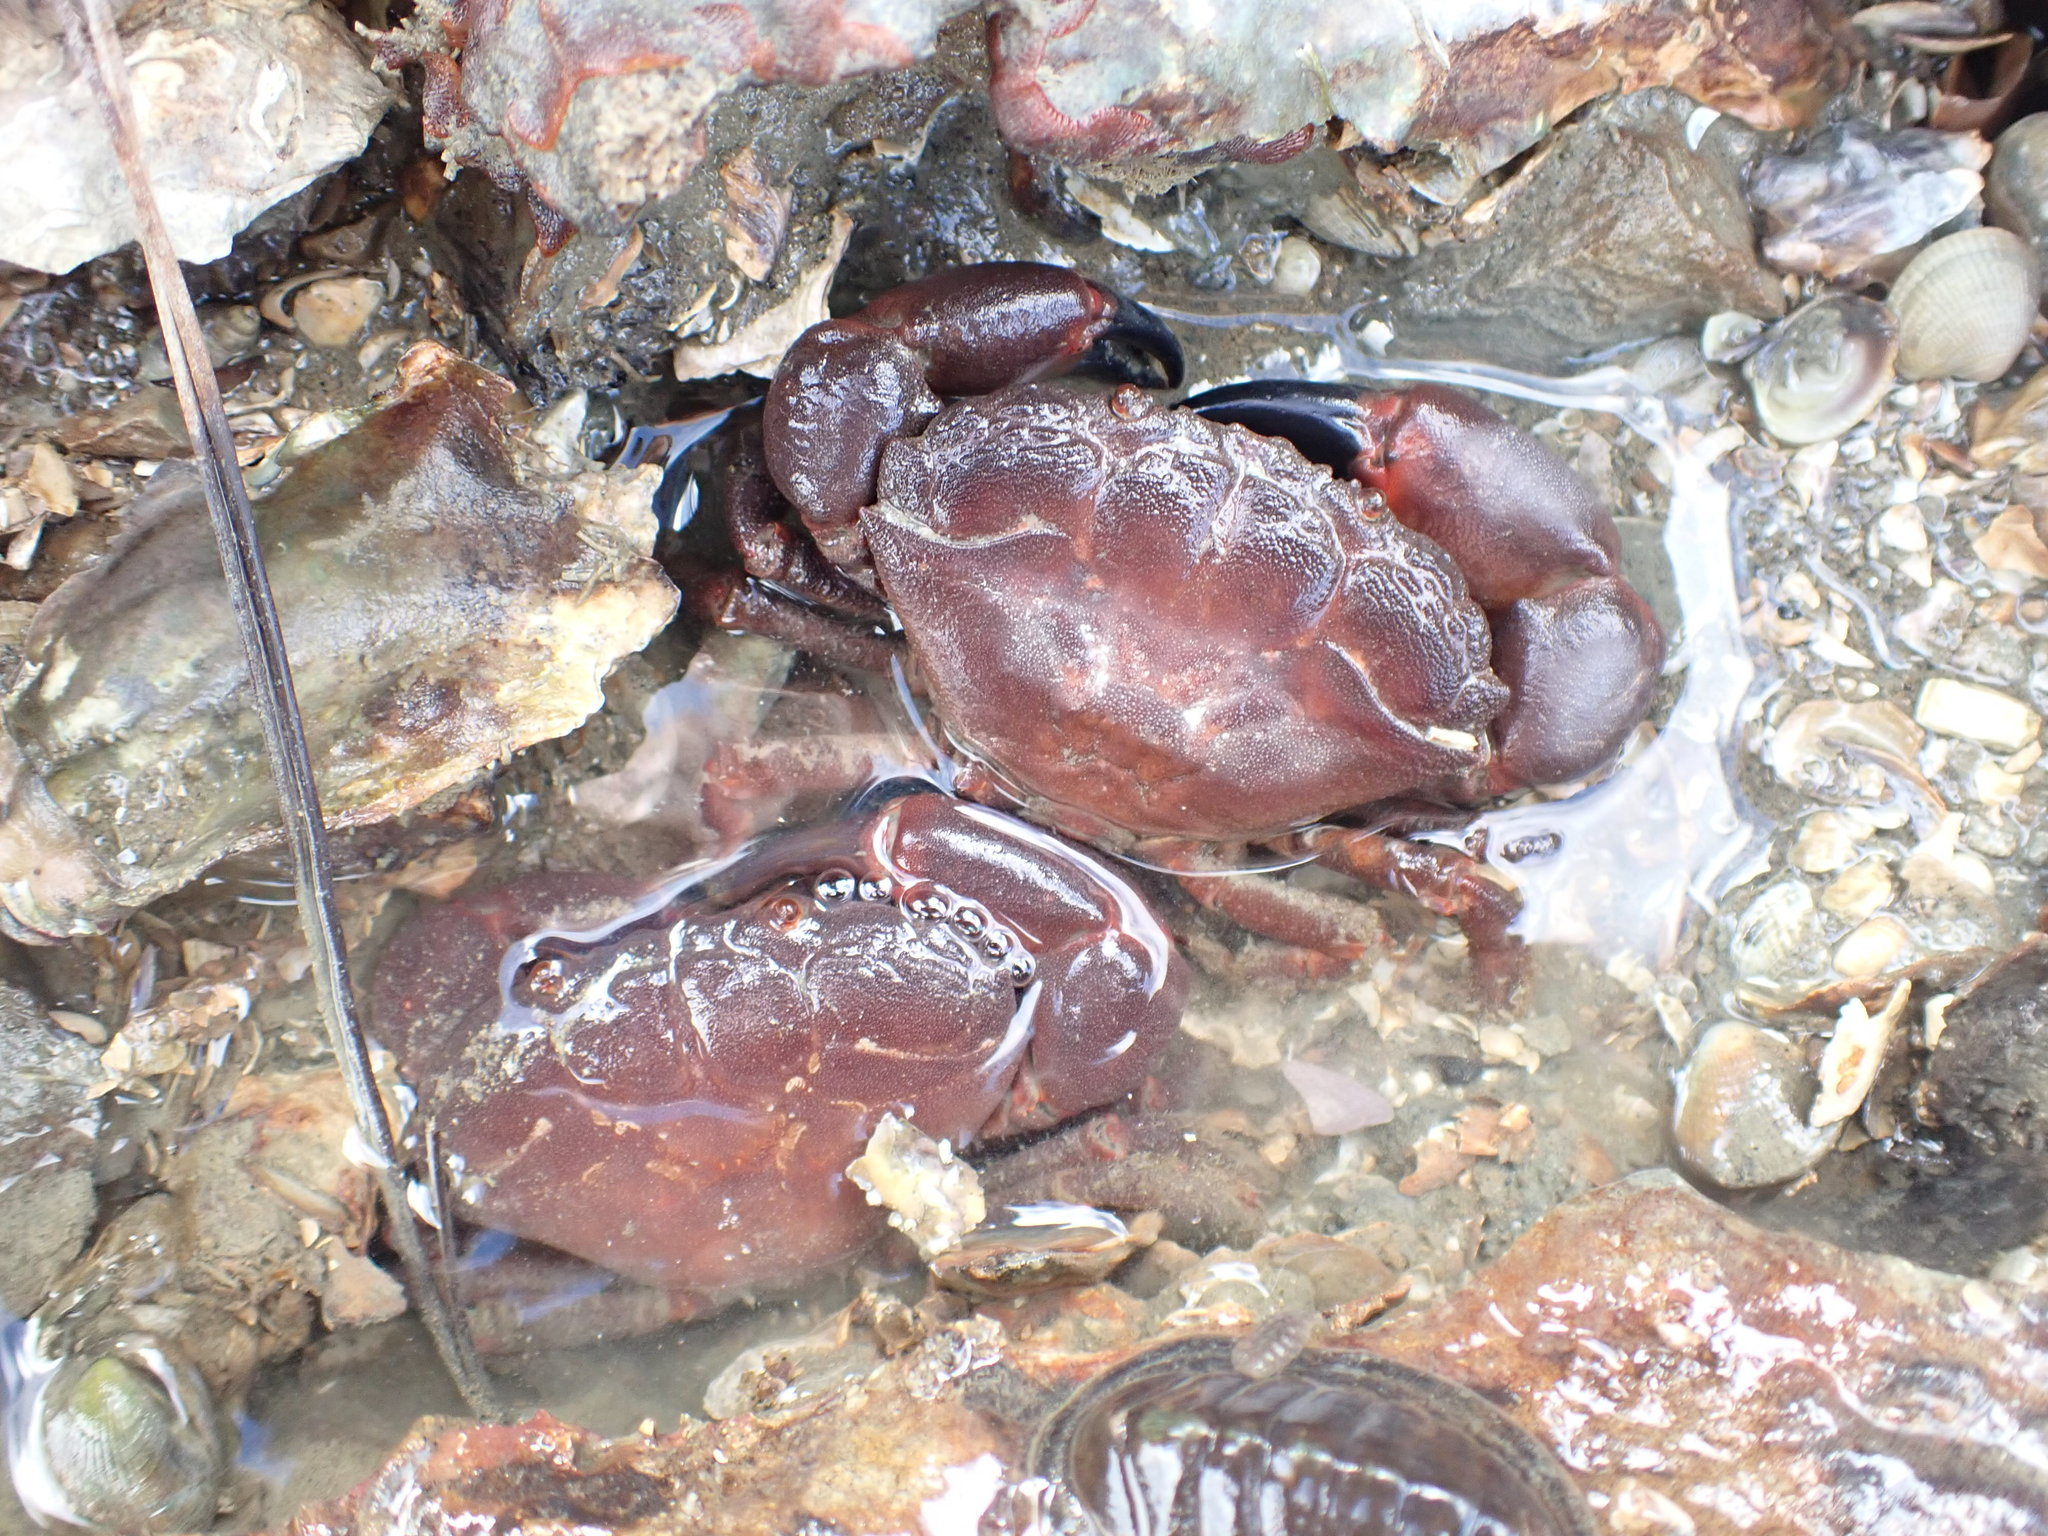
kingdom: Animalia
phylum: Arthropoda
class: Malacostraca
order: Decapoda
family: Oziidae
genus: Ozius
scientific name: Ozius deplanatus
